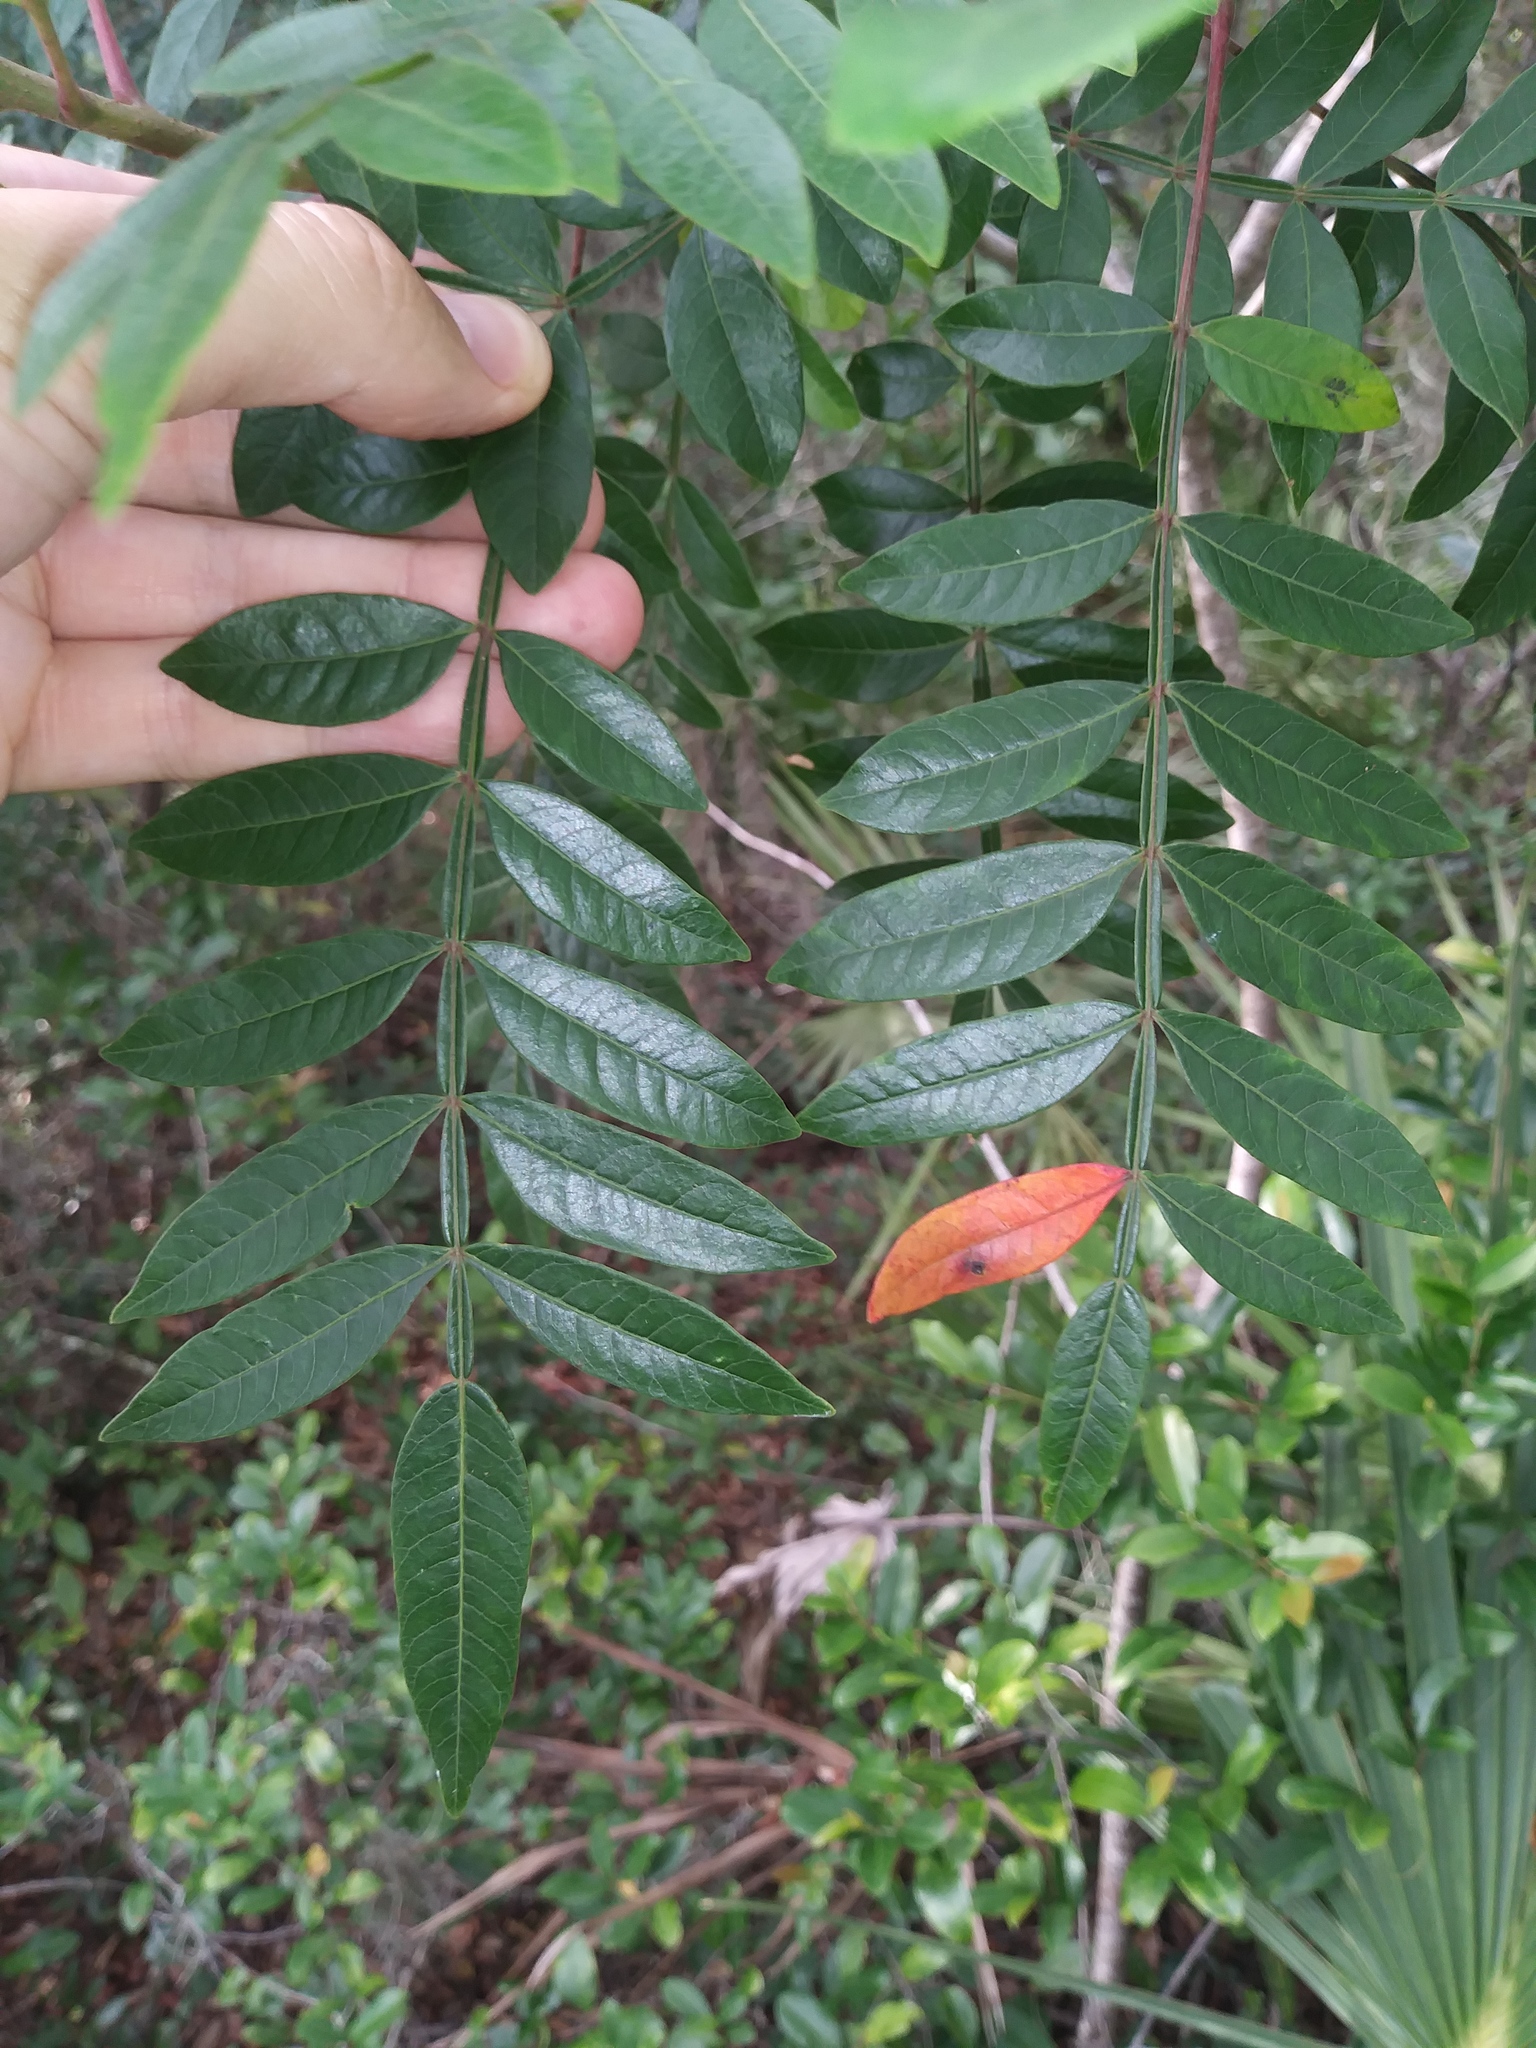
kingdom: Plantae
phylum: Tracheophyta
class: Magnoliopsida
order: Sapindales
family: Anacardiaceae
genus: Rhus
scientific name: Rhus copallina
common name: Shining sumac
